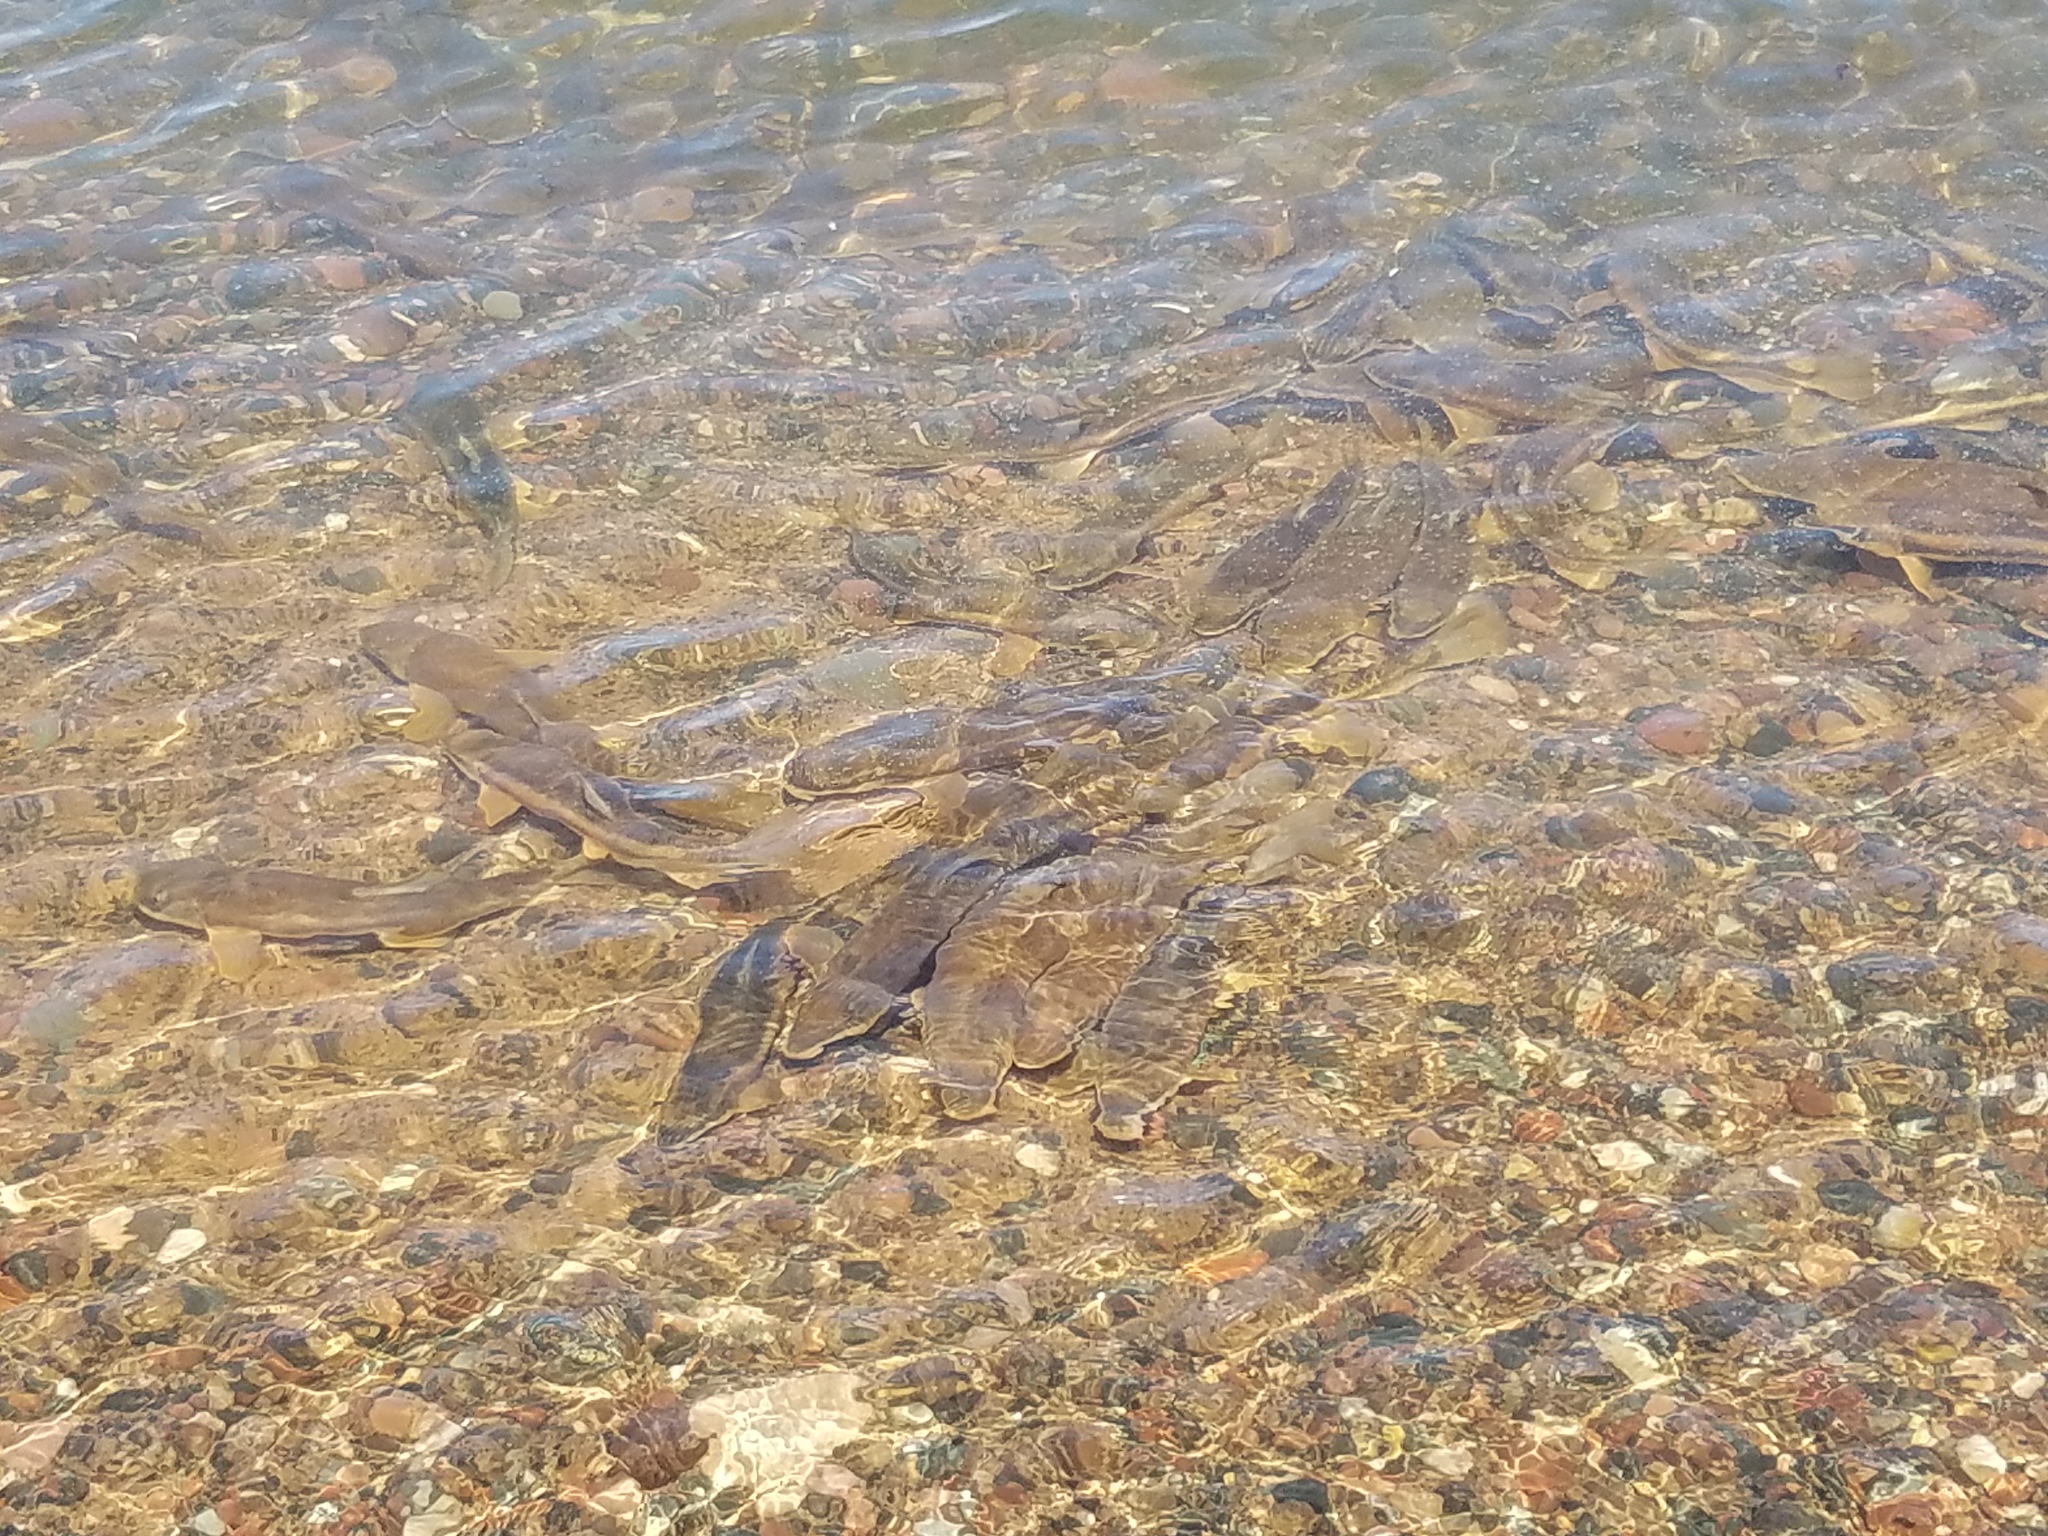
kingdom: Animalia
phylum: Chordata
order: Cypriniformes
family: Catostomidae
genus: Catostomus
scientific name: Catostomus catostomus
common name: Longnose sucker
